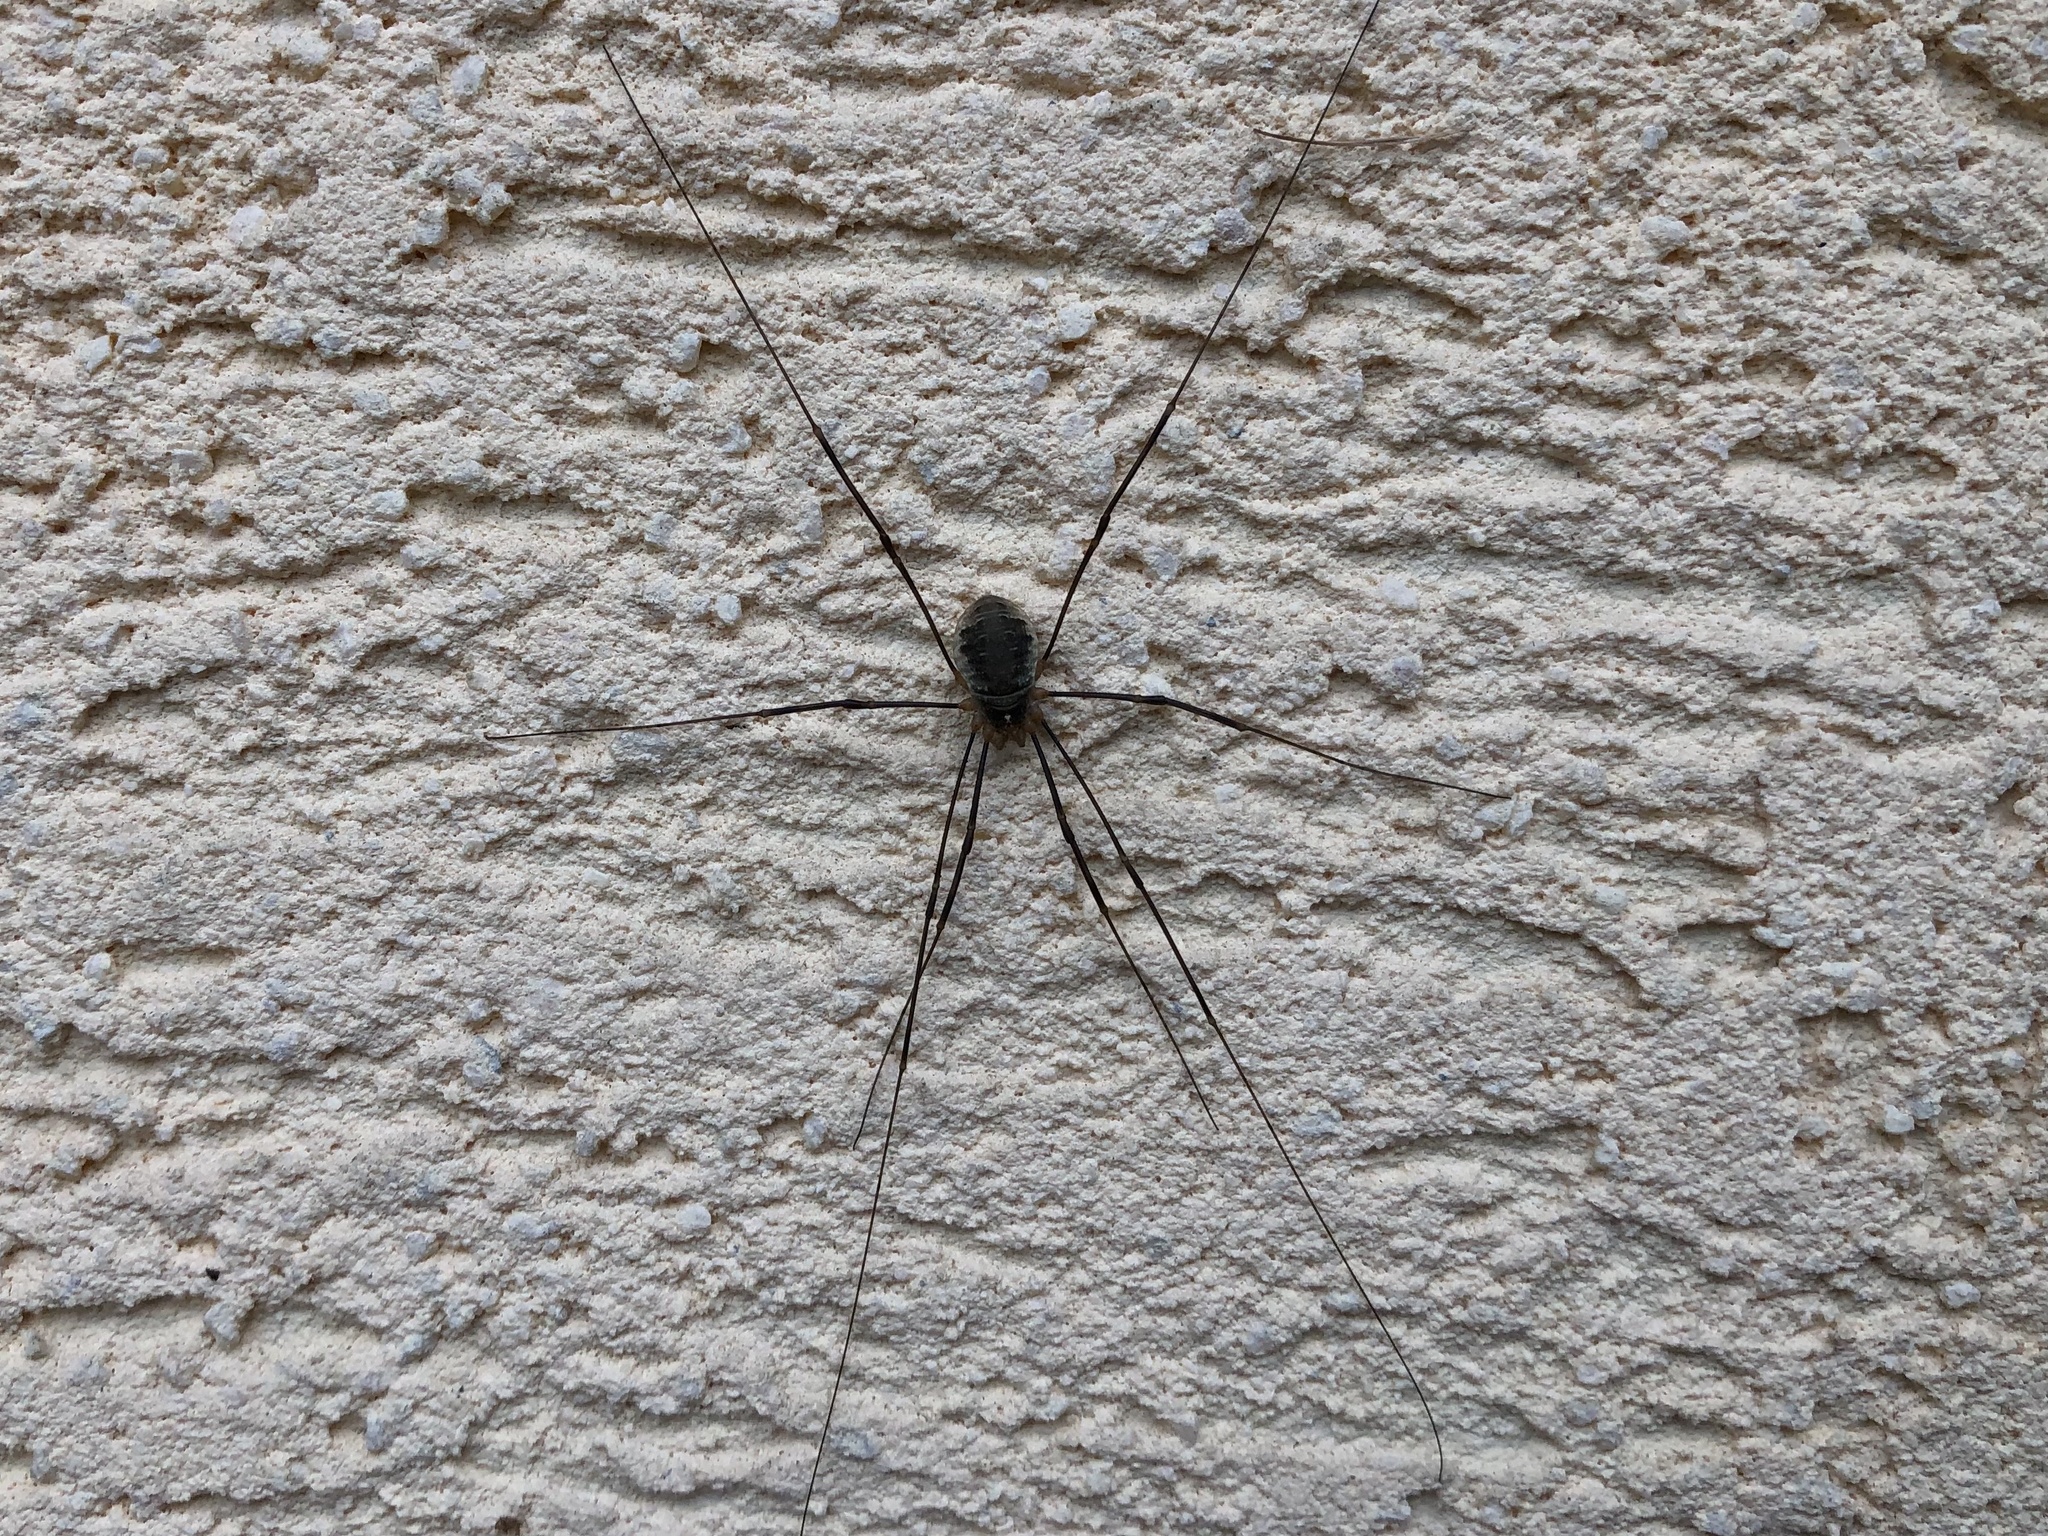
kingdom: Animalia
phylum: Arthropoda
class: Arachnida
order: Opiliones
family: Phalangiidae
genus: Opilio
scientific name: Opilio canestrinii
